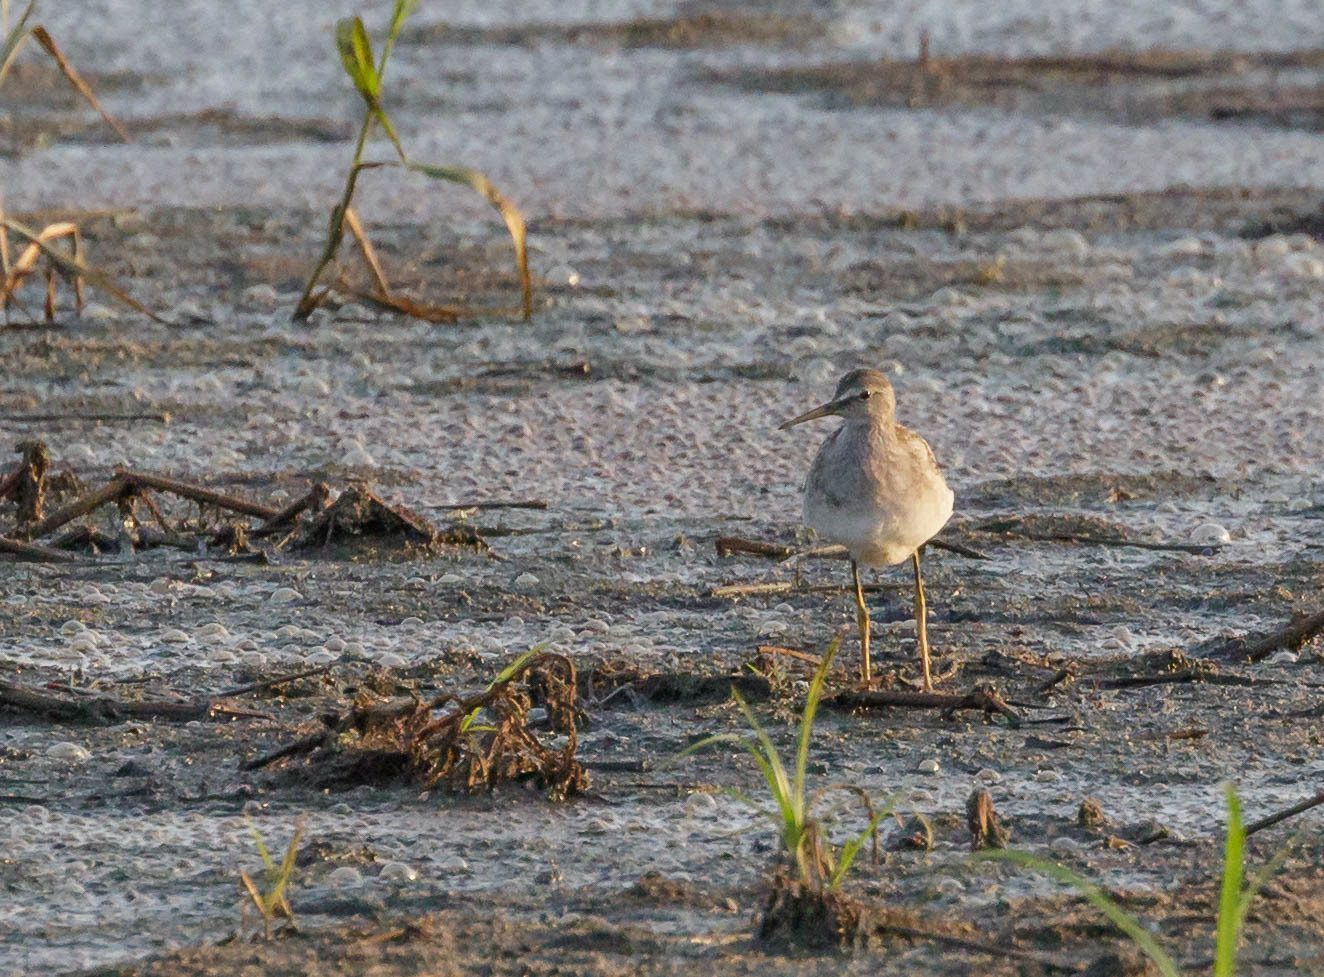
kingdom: Animalia
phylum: Chordata
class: Aves
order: Charadriiformes
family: Scolopacidae
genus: Tringa
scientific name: Tringa flavipes
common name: Lesser yellowlegs
